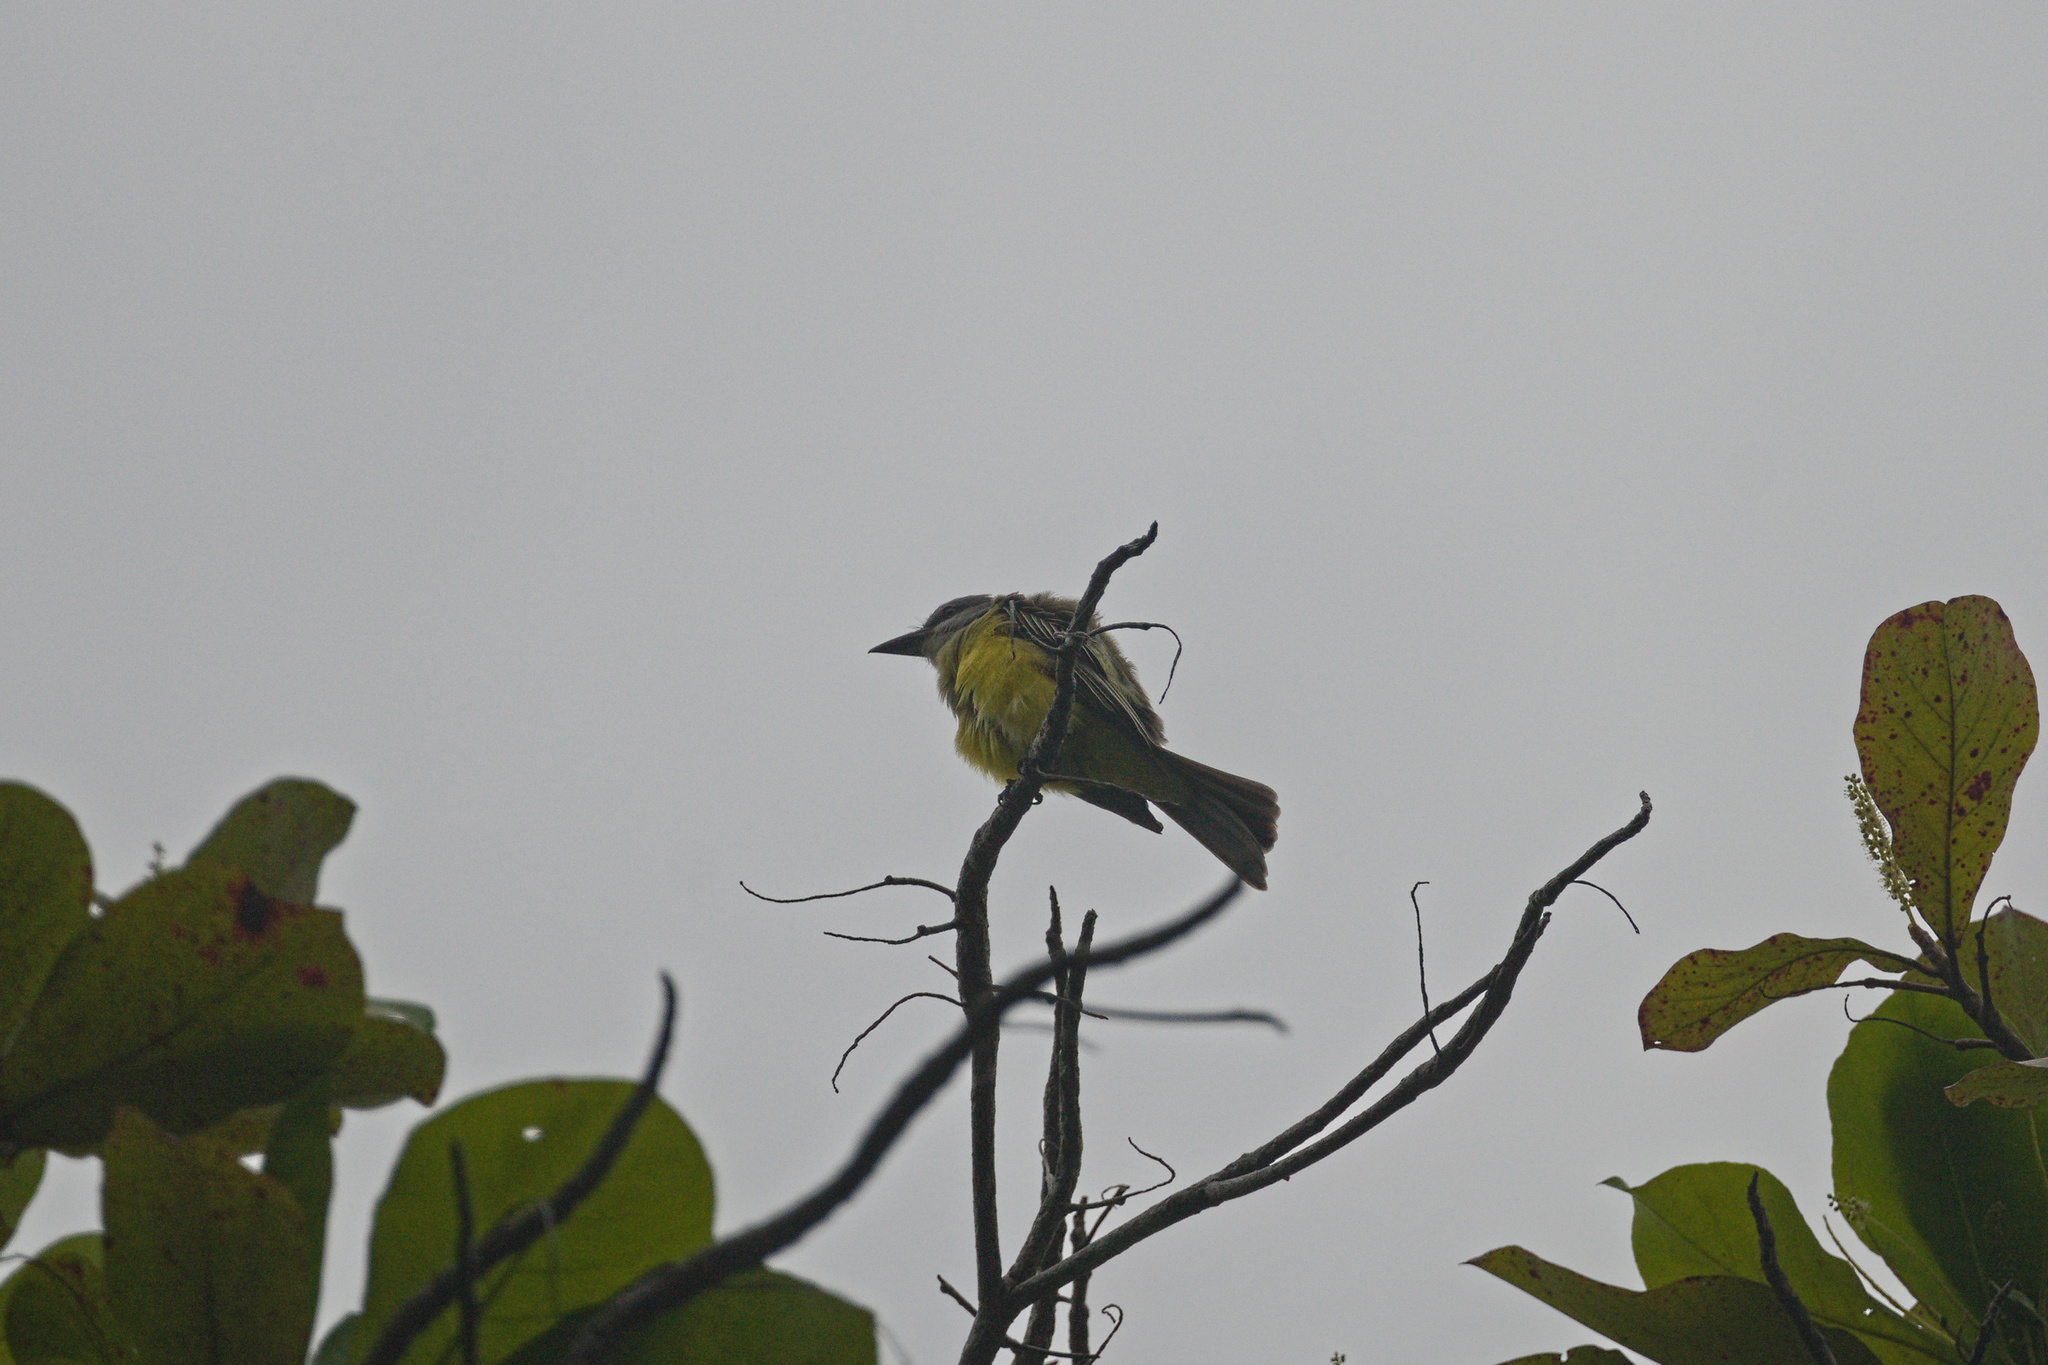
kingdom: Animalia
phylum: Chordata
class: Aves
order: Passeriformes
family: Tyrannidae
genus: Tyrannus
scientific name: Tyrannus melancholicus
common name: Tropical kingbird
